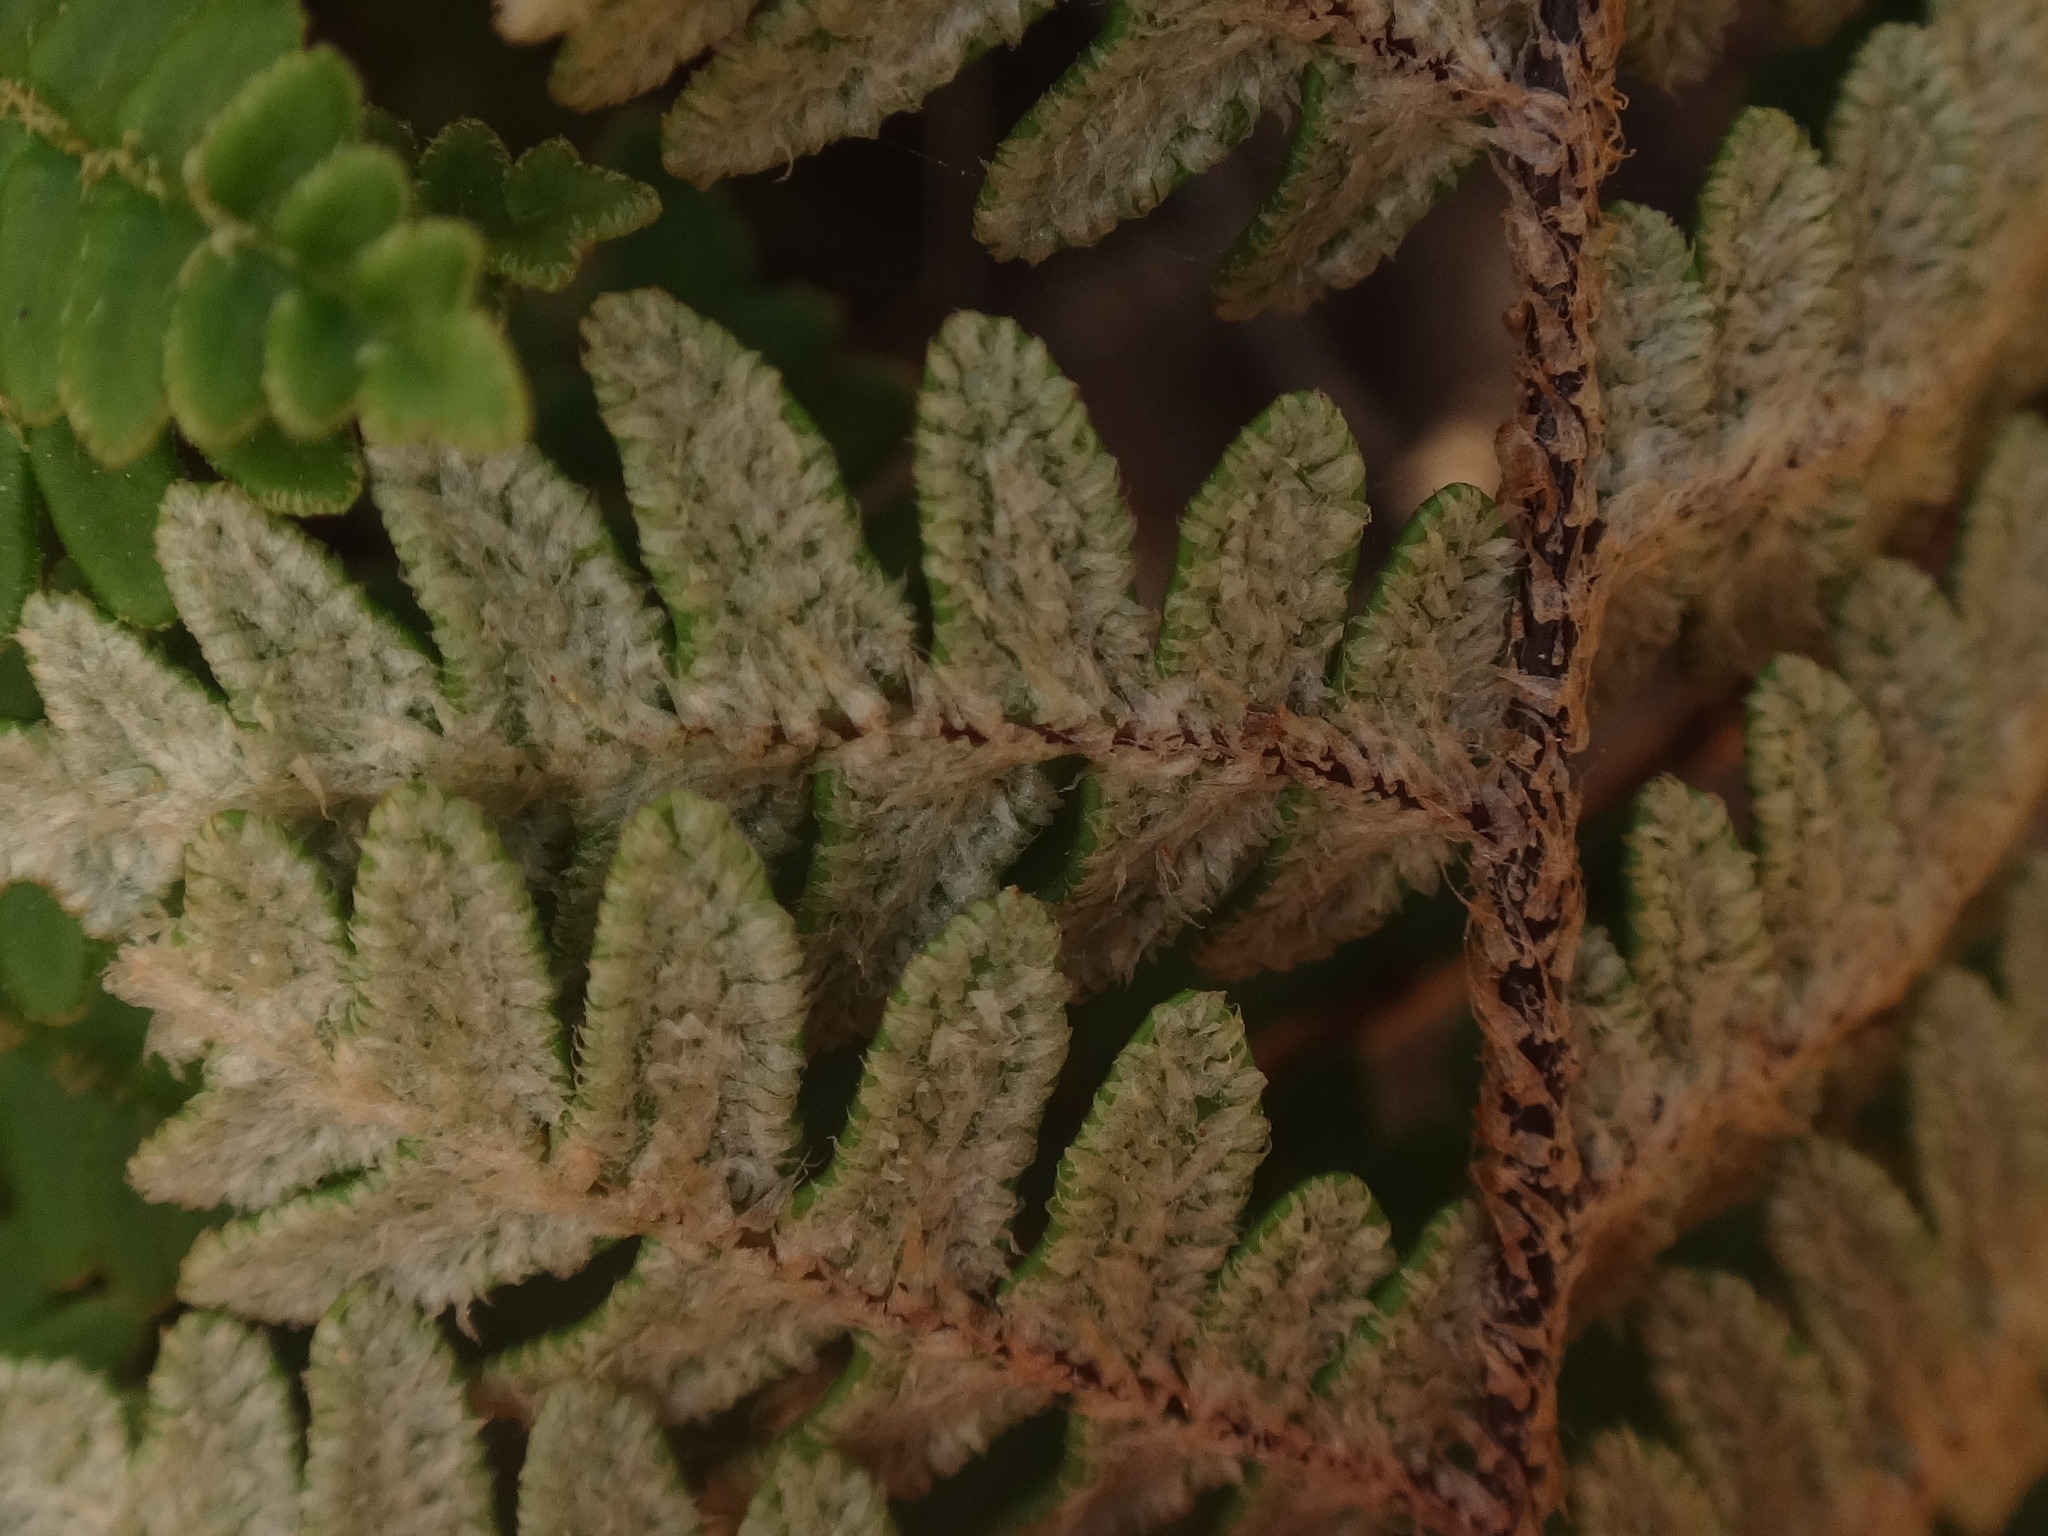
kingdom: Plantae
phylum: Tracheophyta
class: Polypodiopsida
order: Polypodiales
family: Pteridaceae
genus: Paragymnopteris
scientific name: Paragymnopteris marantae
